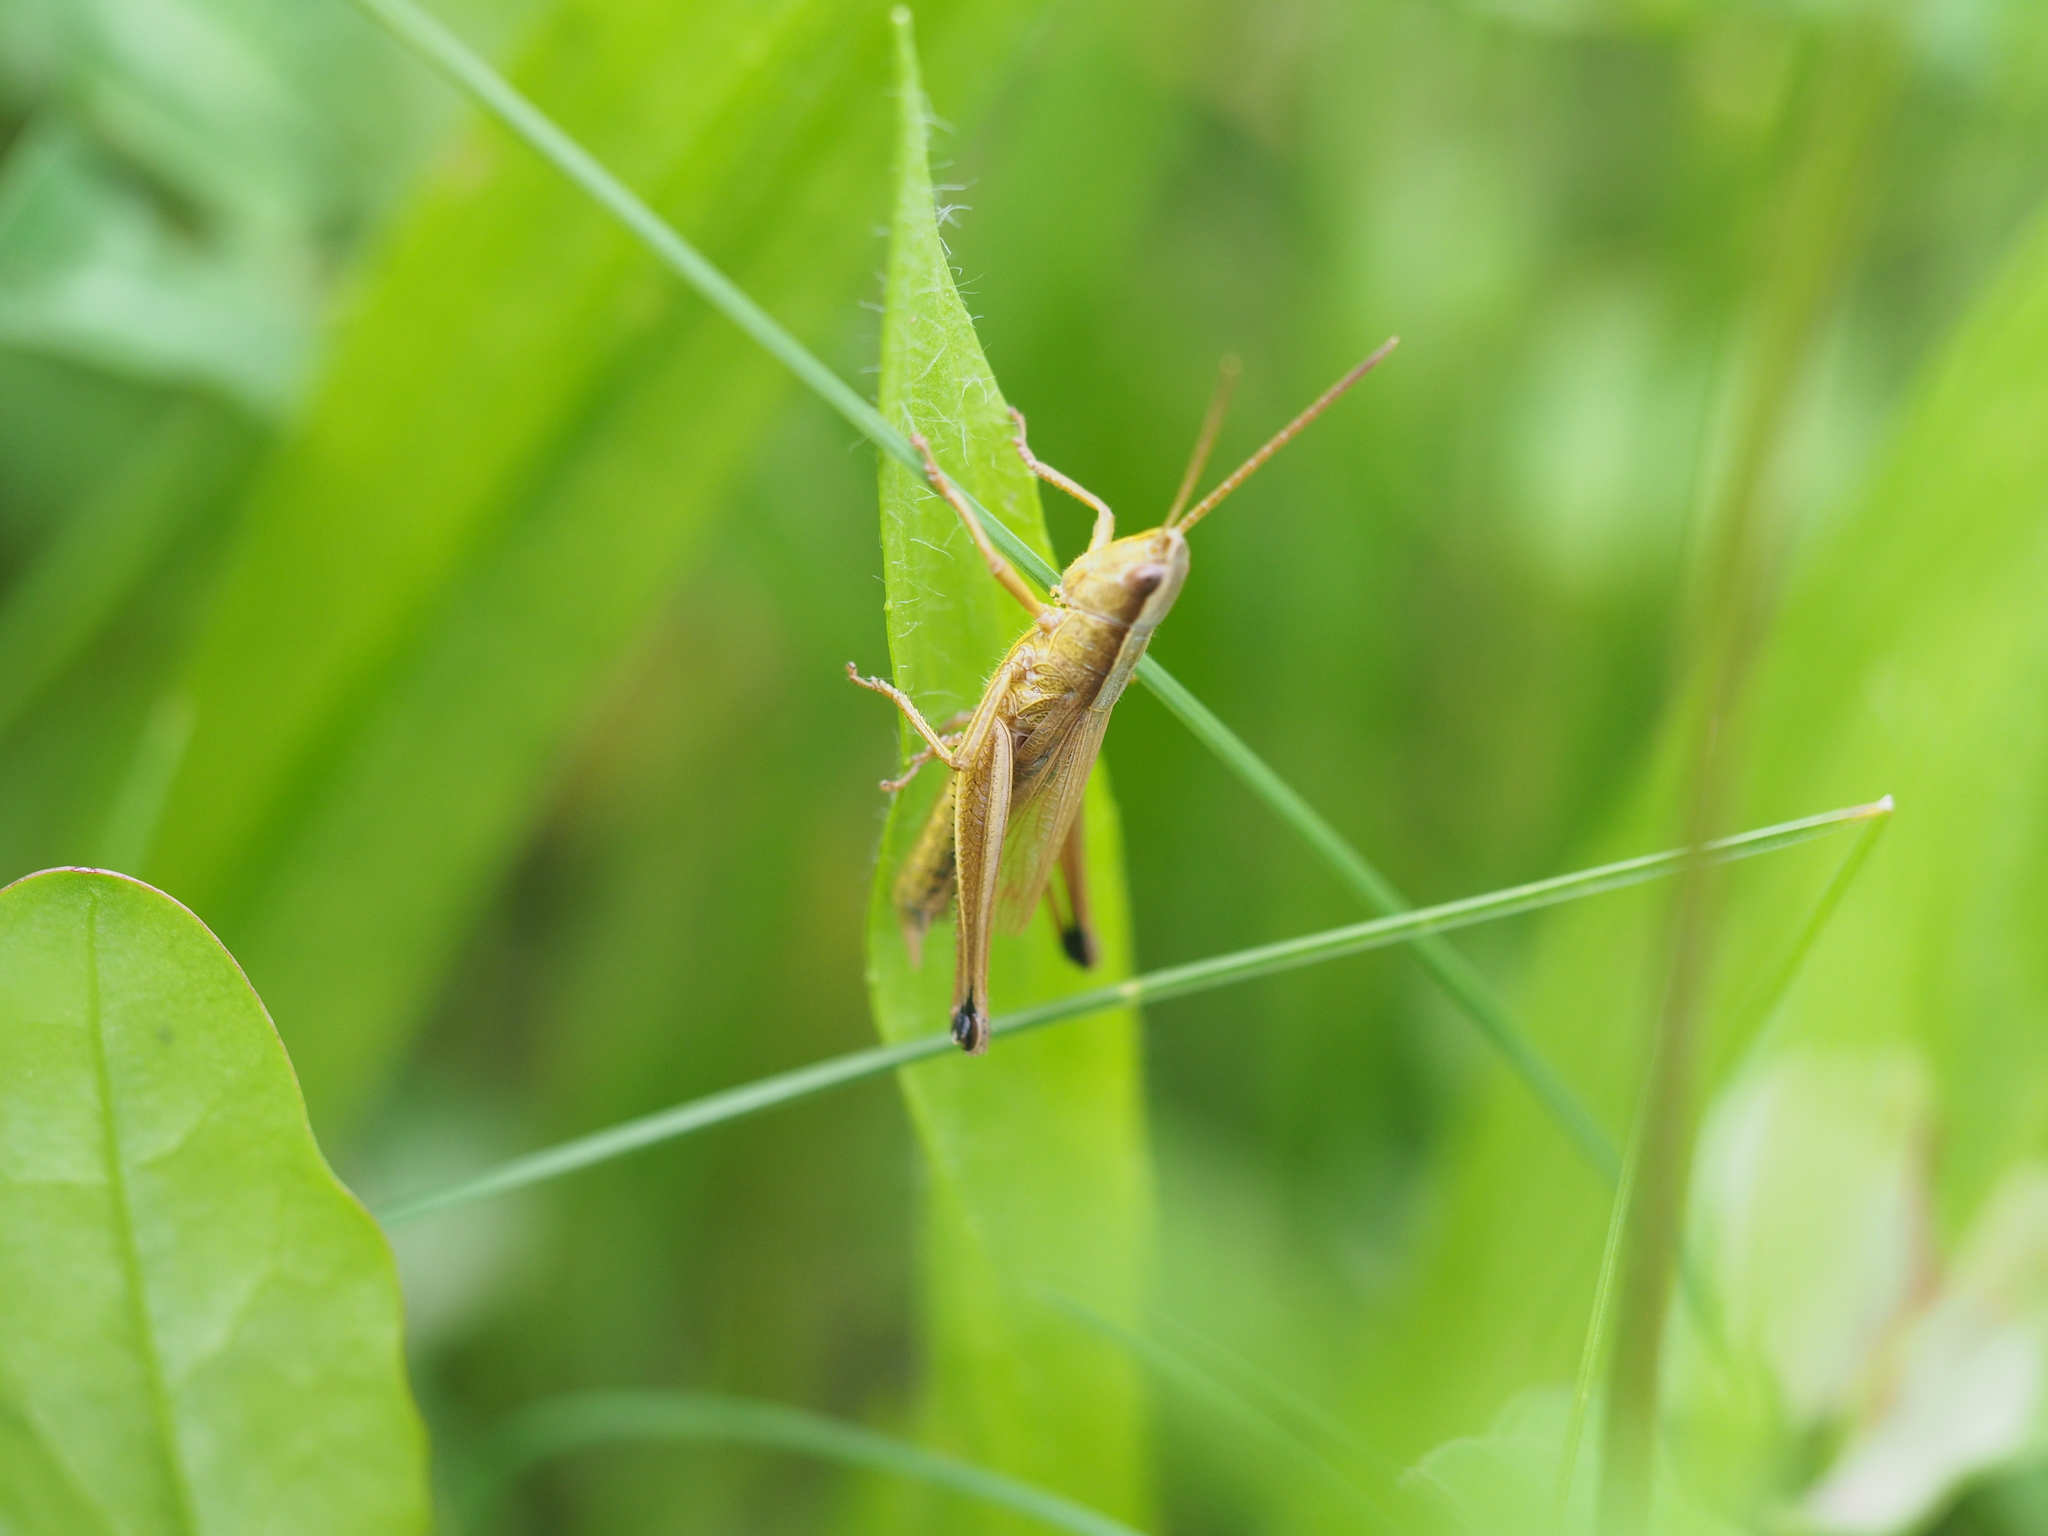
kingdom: Animalia
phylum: Arthropoda
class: Insecta
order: Orthoptera
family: Acrididae
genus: Chrysochraon
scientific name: Chrysochraon dispar
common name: Large gold grasshopper
